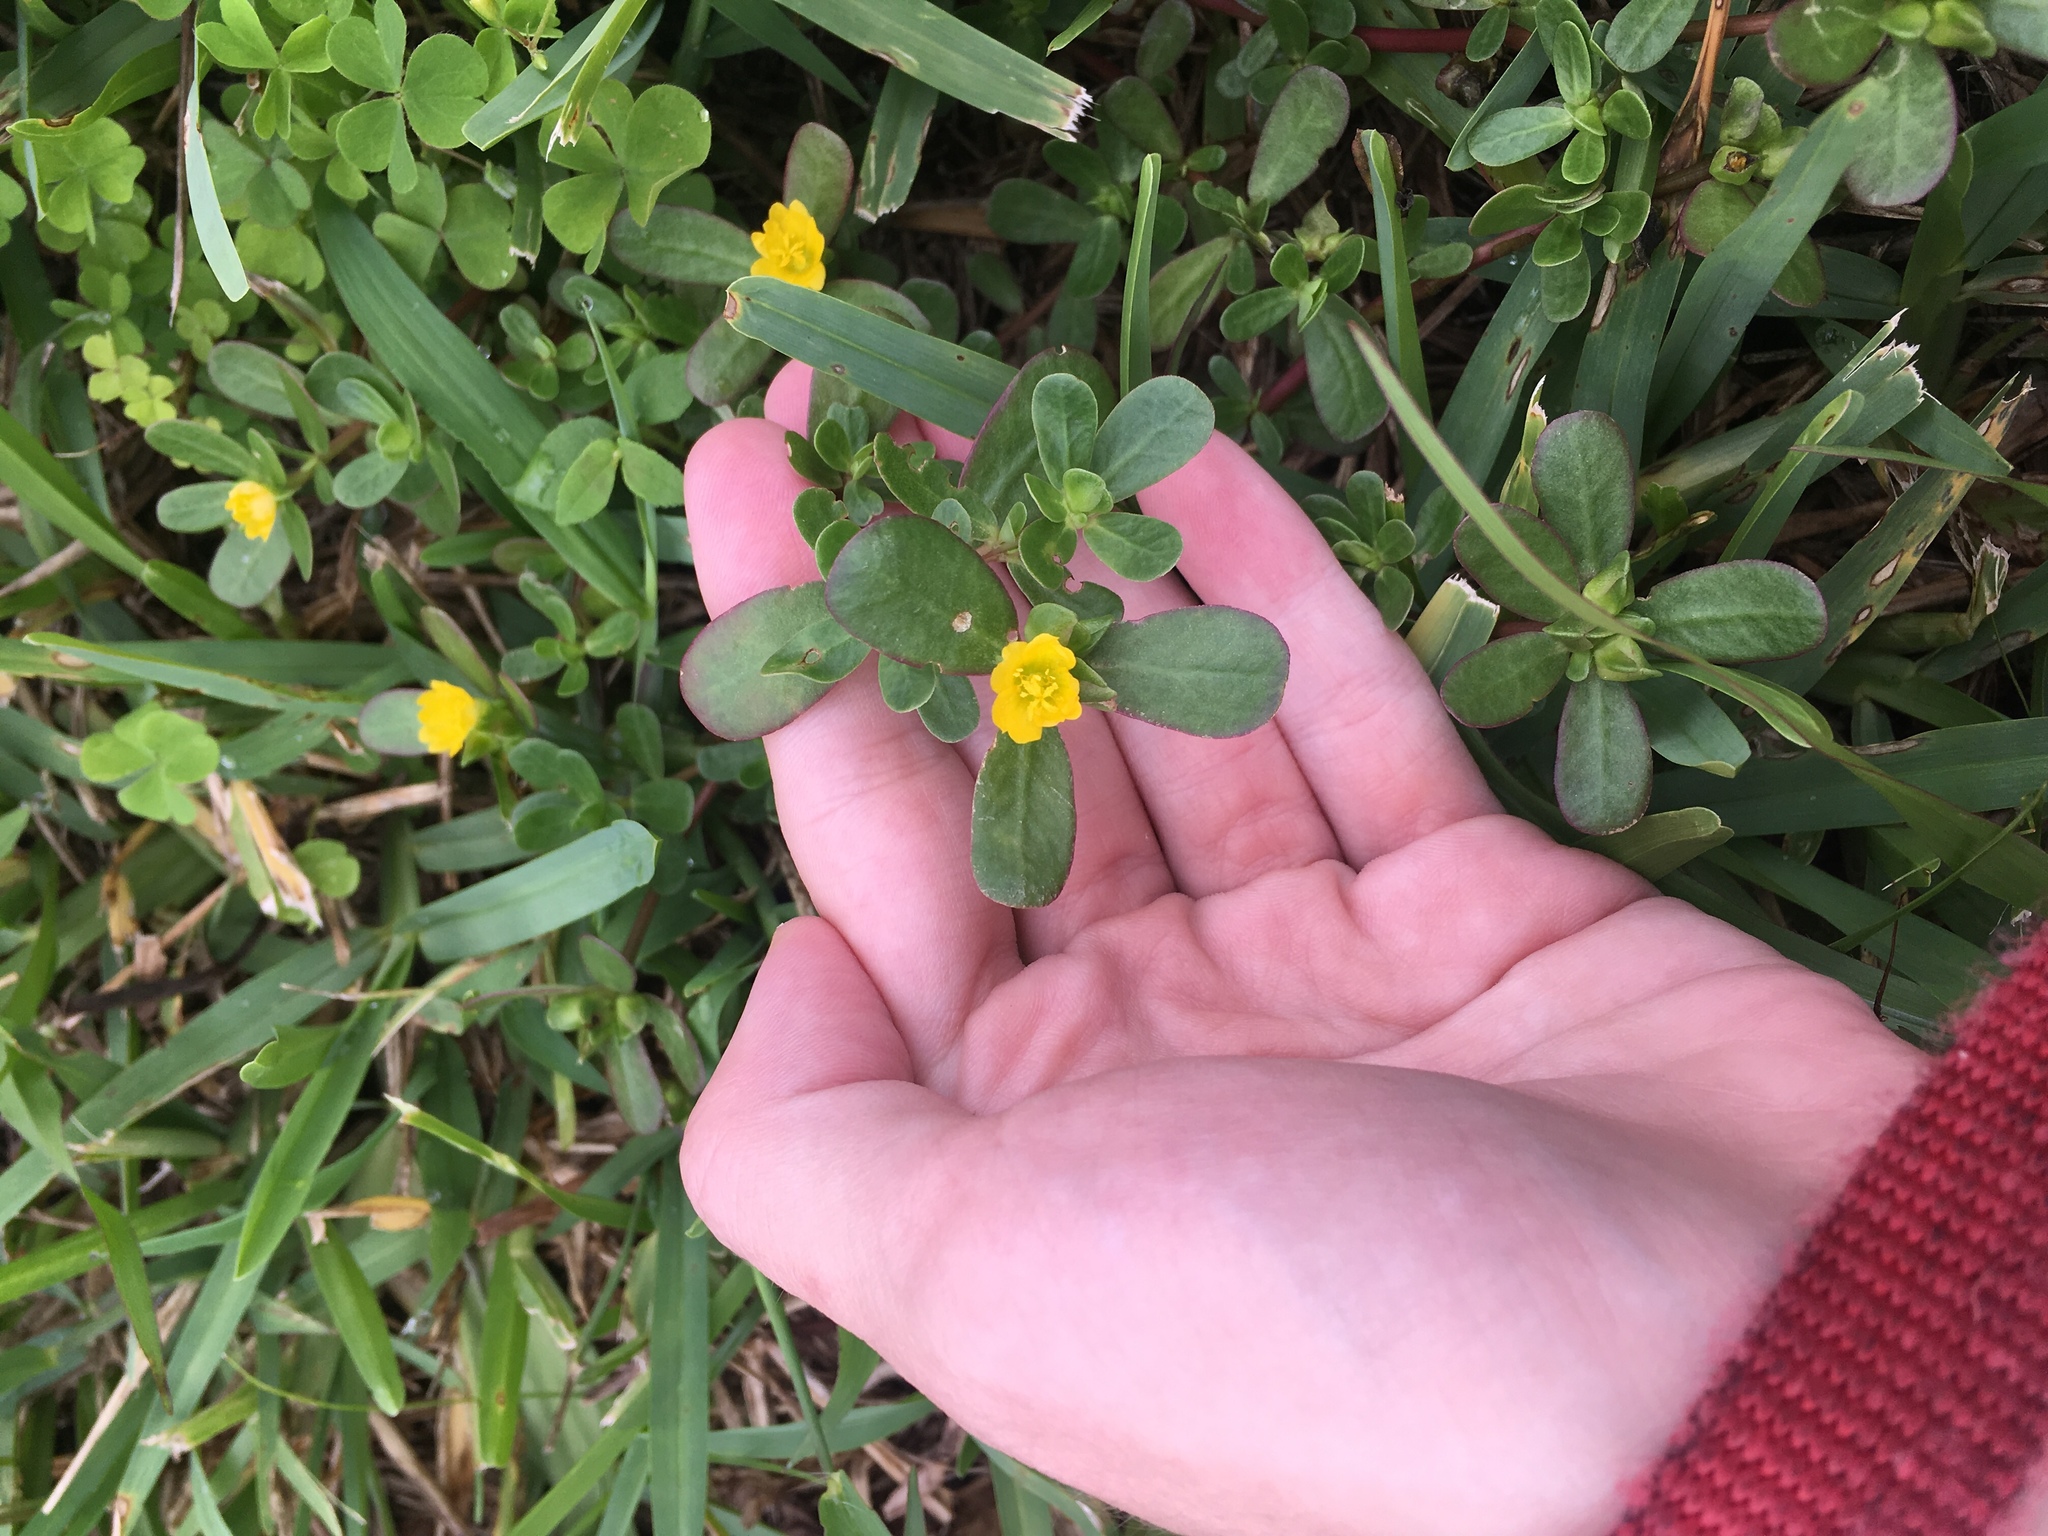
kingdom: Plantae
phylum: Tracheophyta
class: Magnoliopsida
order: Caryophyllales
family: Portulacaceae
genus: Portulaca
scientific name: Portulaca oleracea
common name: Common purslane
